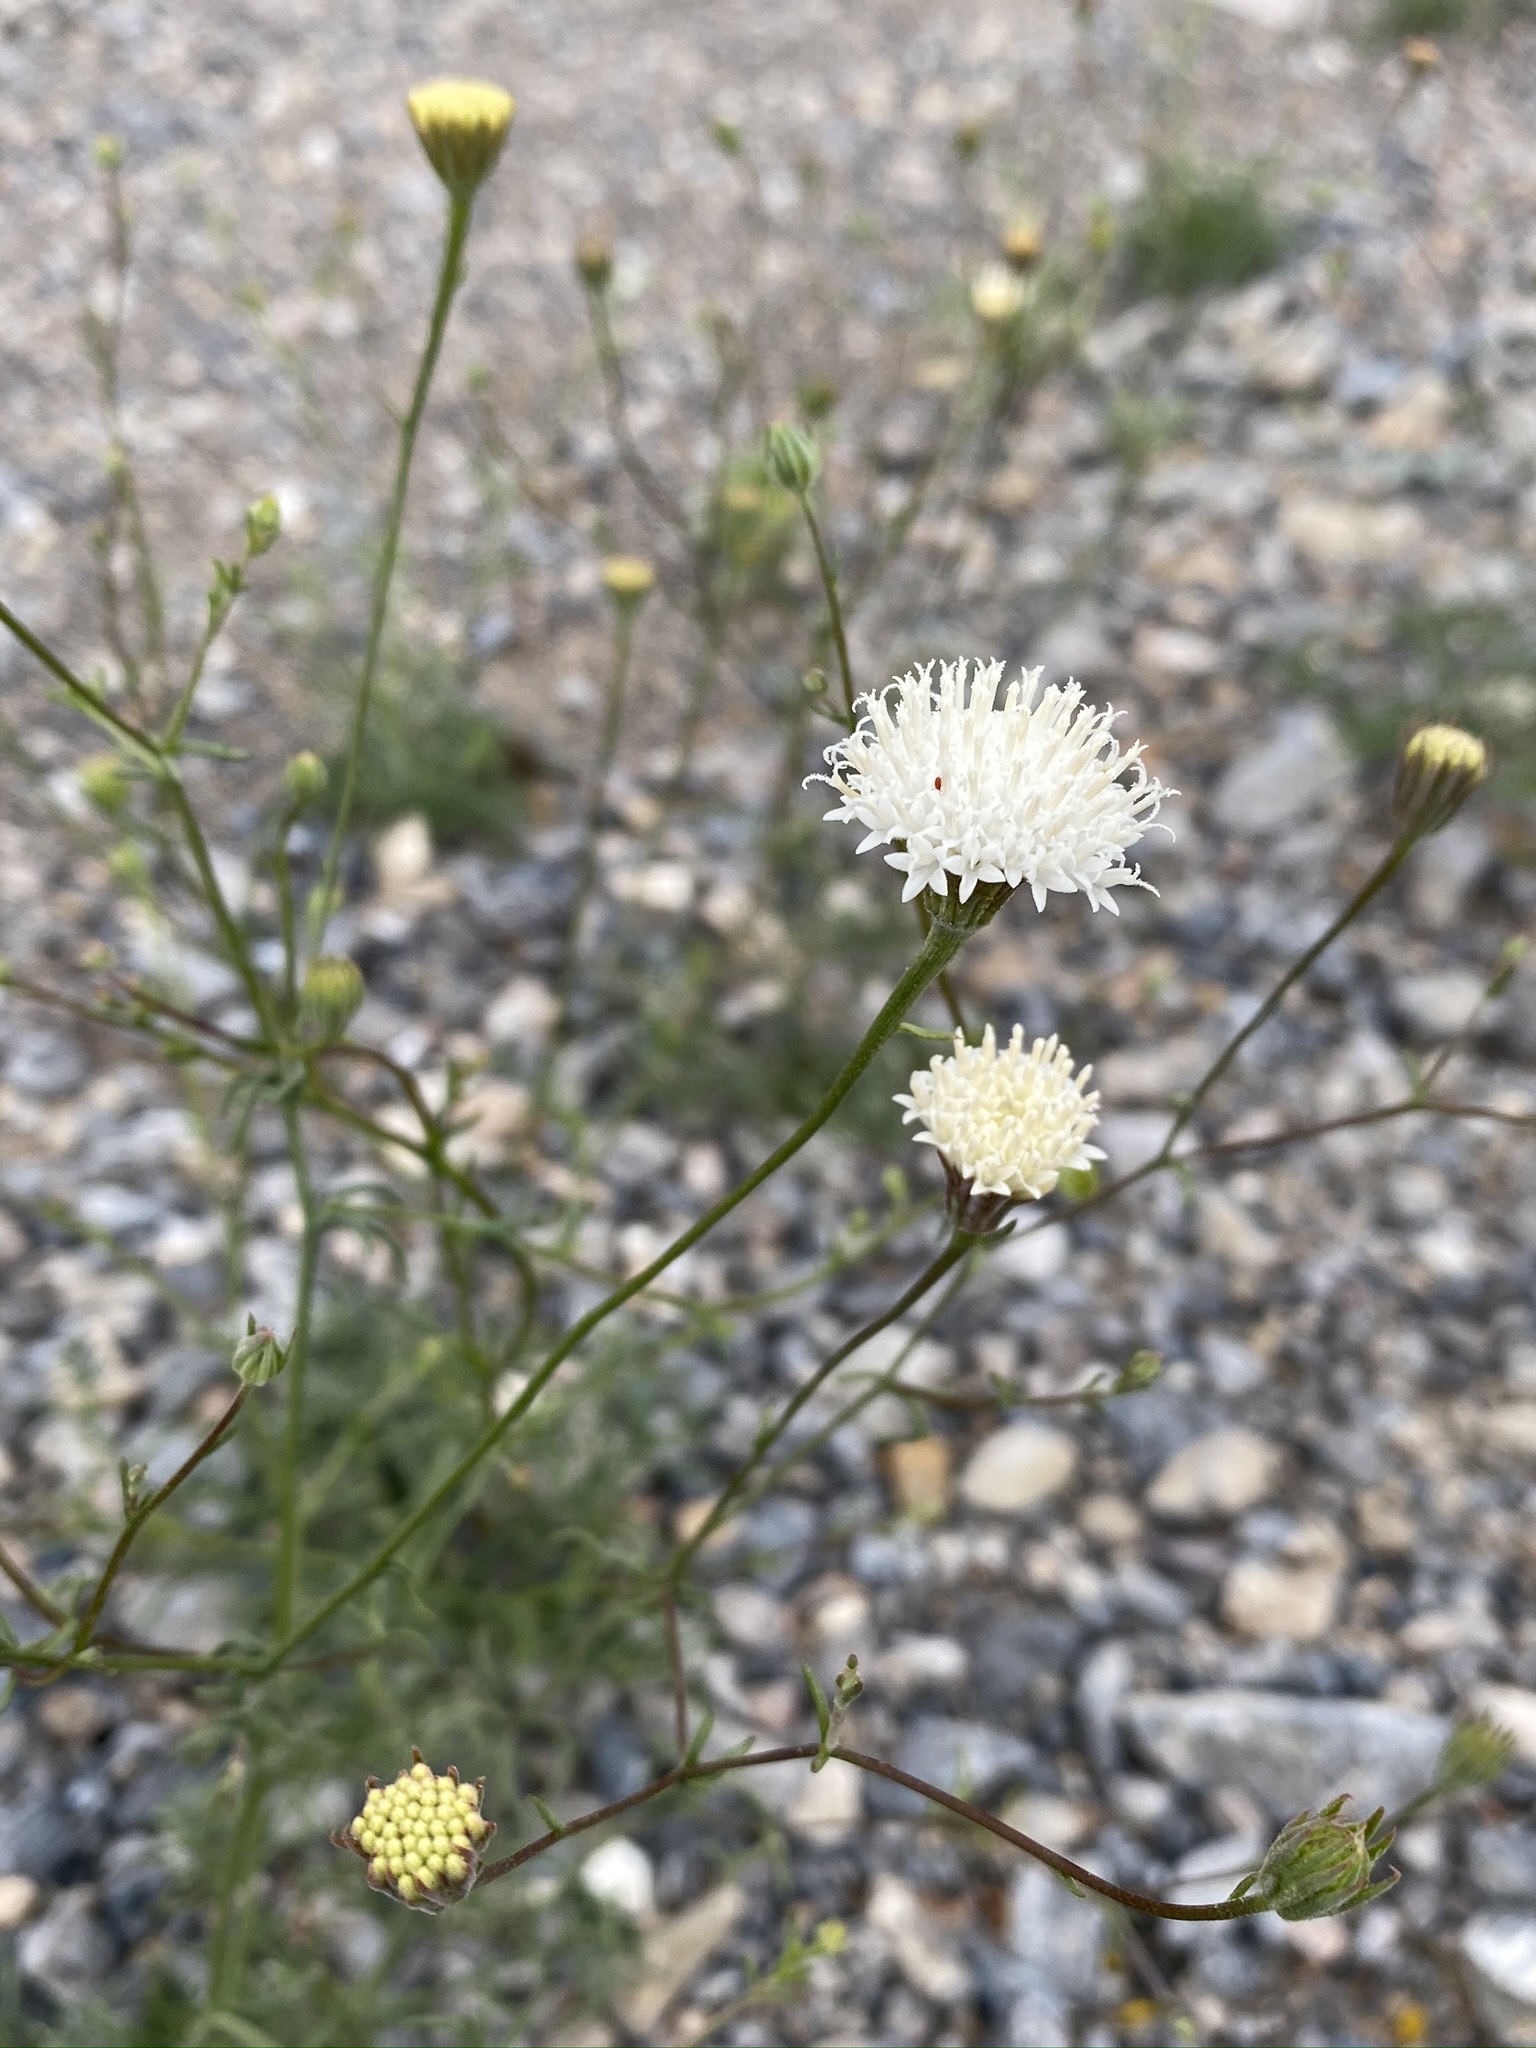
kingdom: Plantae
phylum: Tracheophyta
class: Magnoliopsida
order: Asterales
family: Asteraceae
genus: Chaenactis
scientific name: Chaenactis carphoclinia
